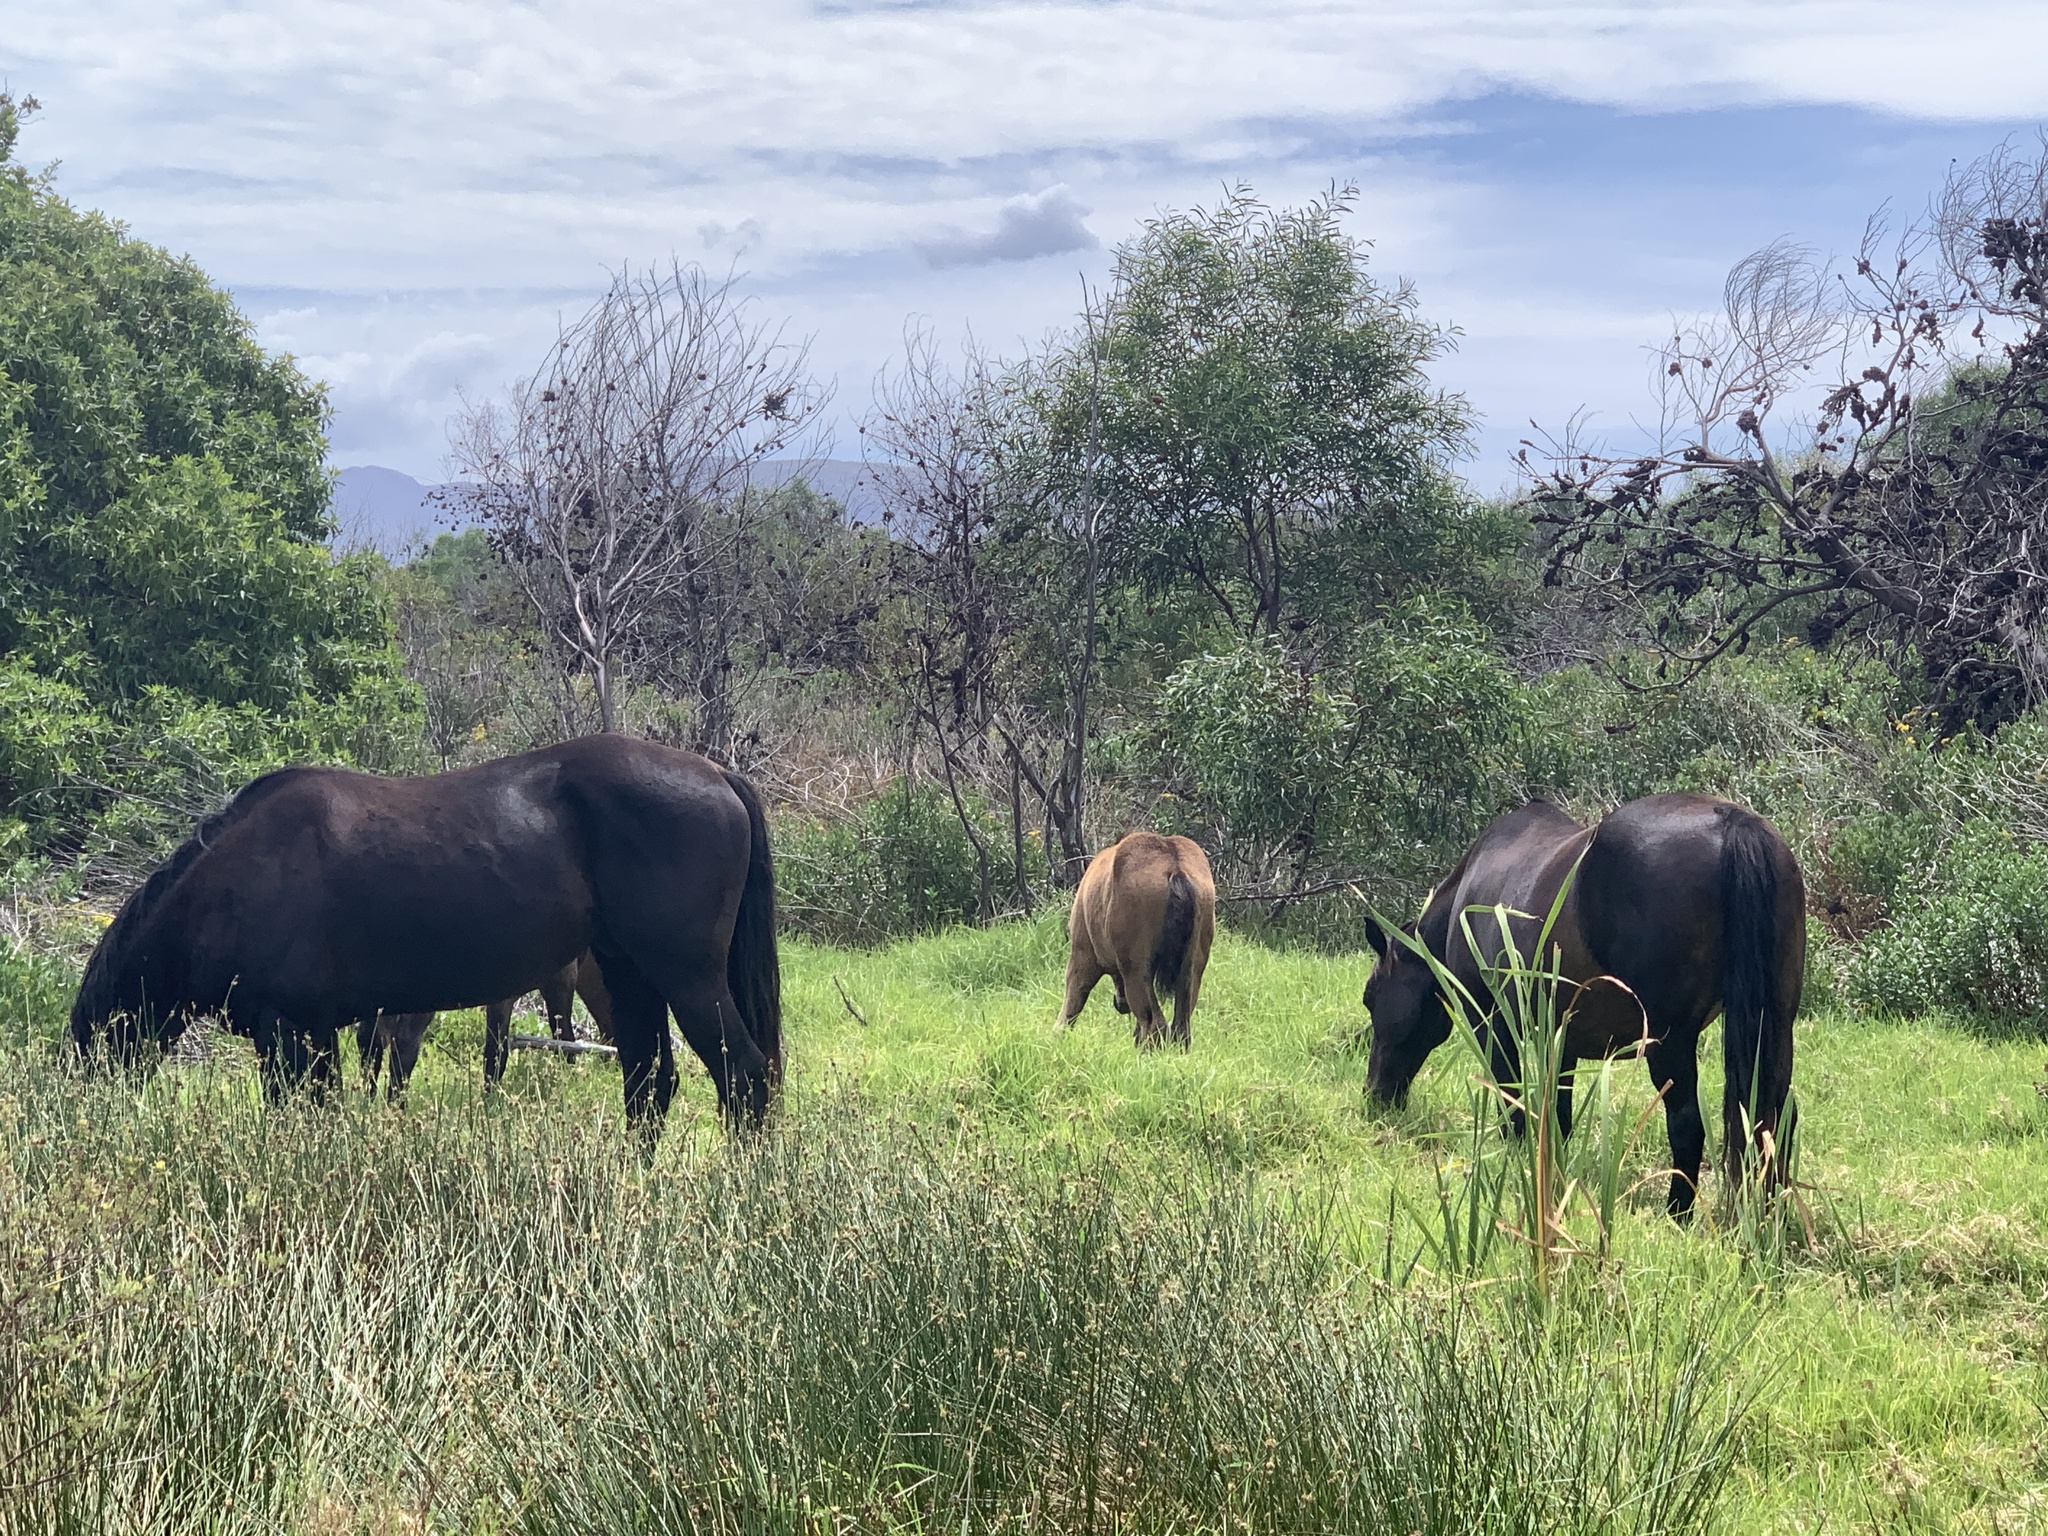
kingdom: Animalia
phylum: Chordata
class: Mammalia
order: Perissodactyla
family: Equidae
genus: Equus
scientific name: Equus caballus
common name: Horse
